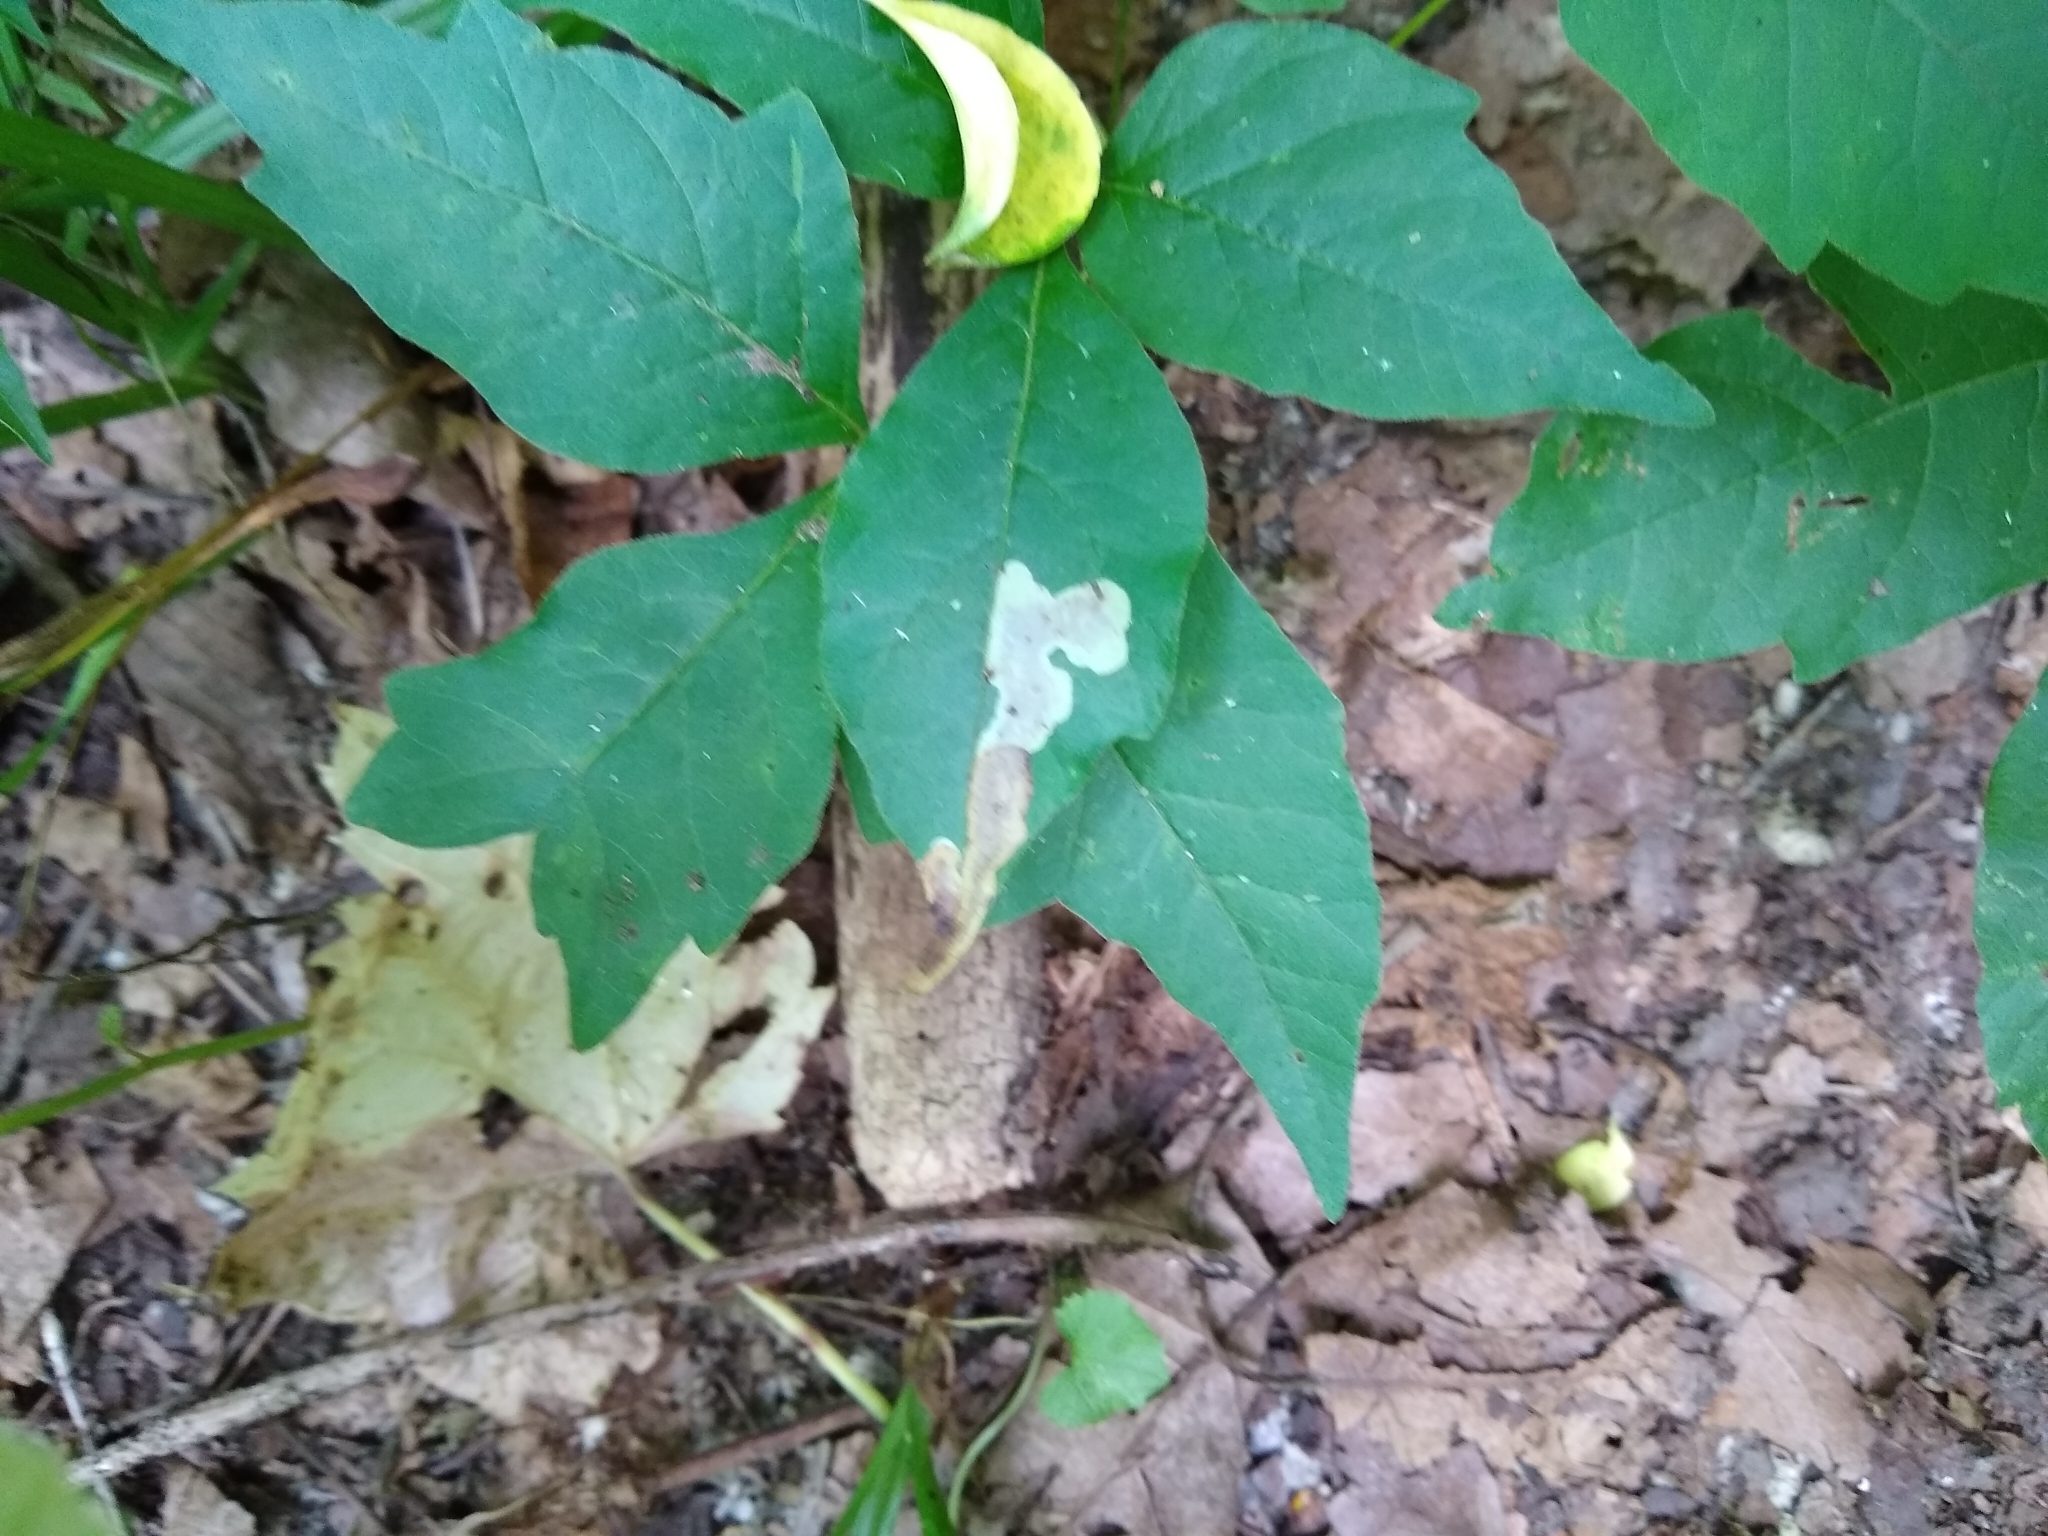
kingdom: Animalia
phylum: Arthropoda
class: Insecta
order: Lepidoptera
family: Gracillariidae
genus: Cameraria
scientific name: Cameraria guttifinitella
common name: Poison ivy leaf-miner moth
